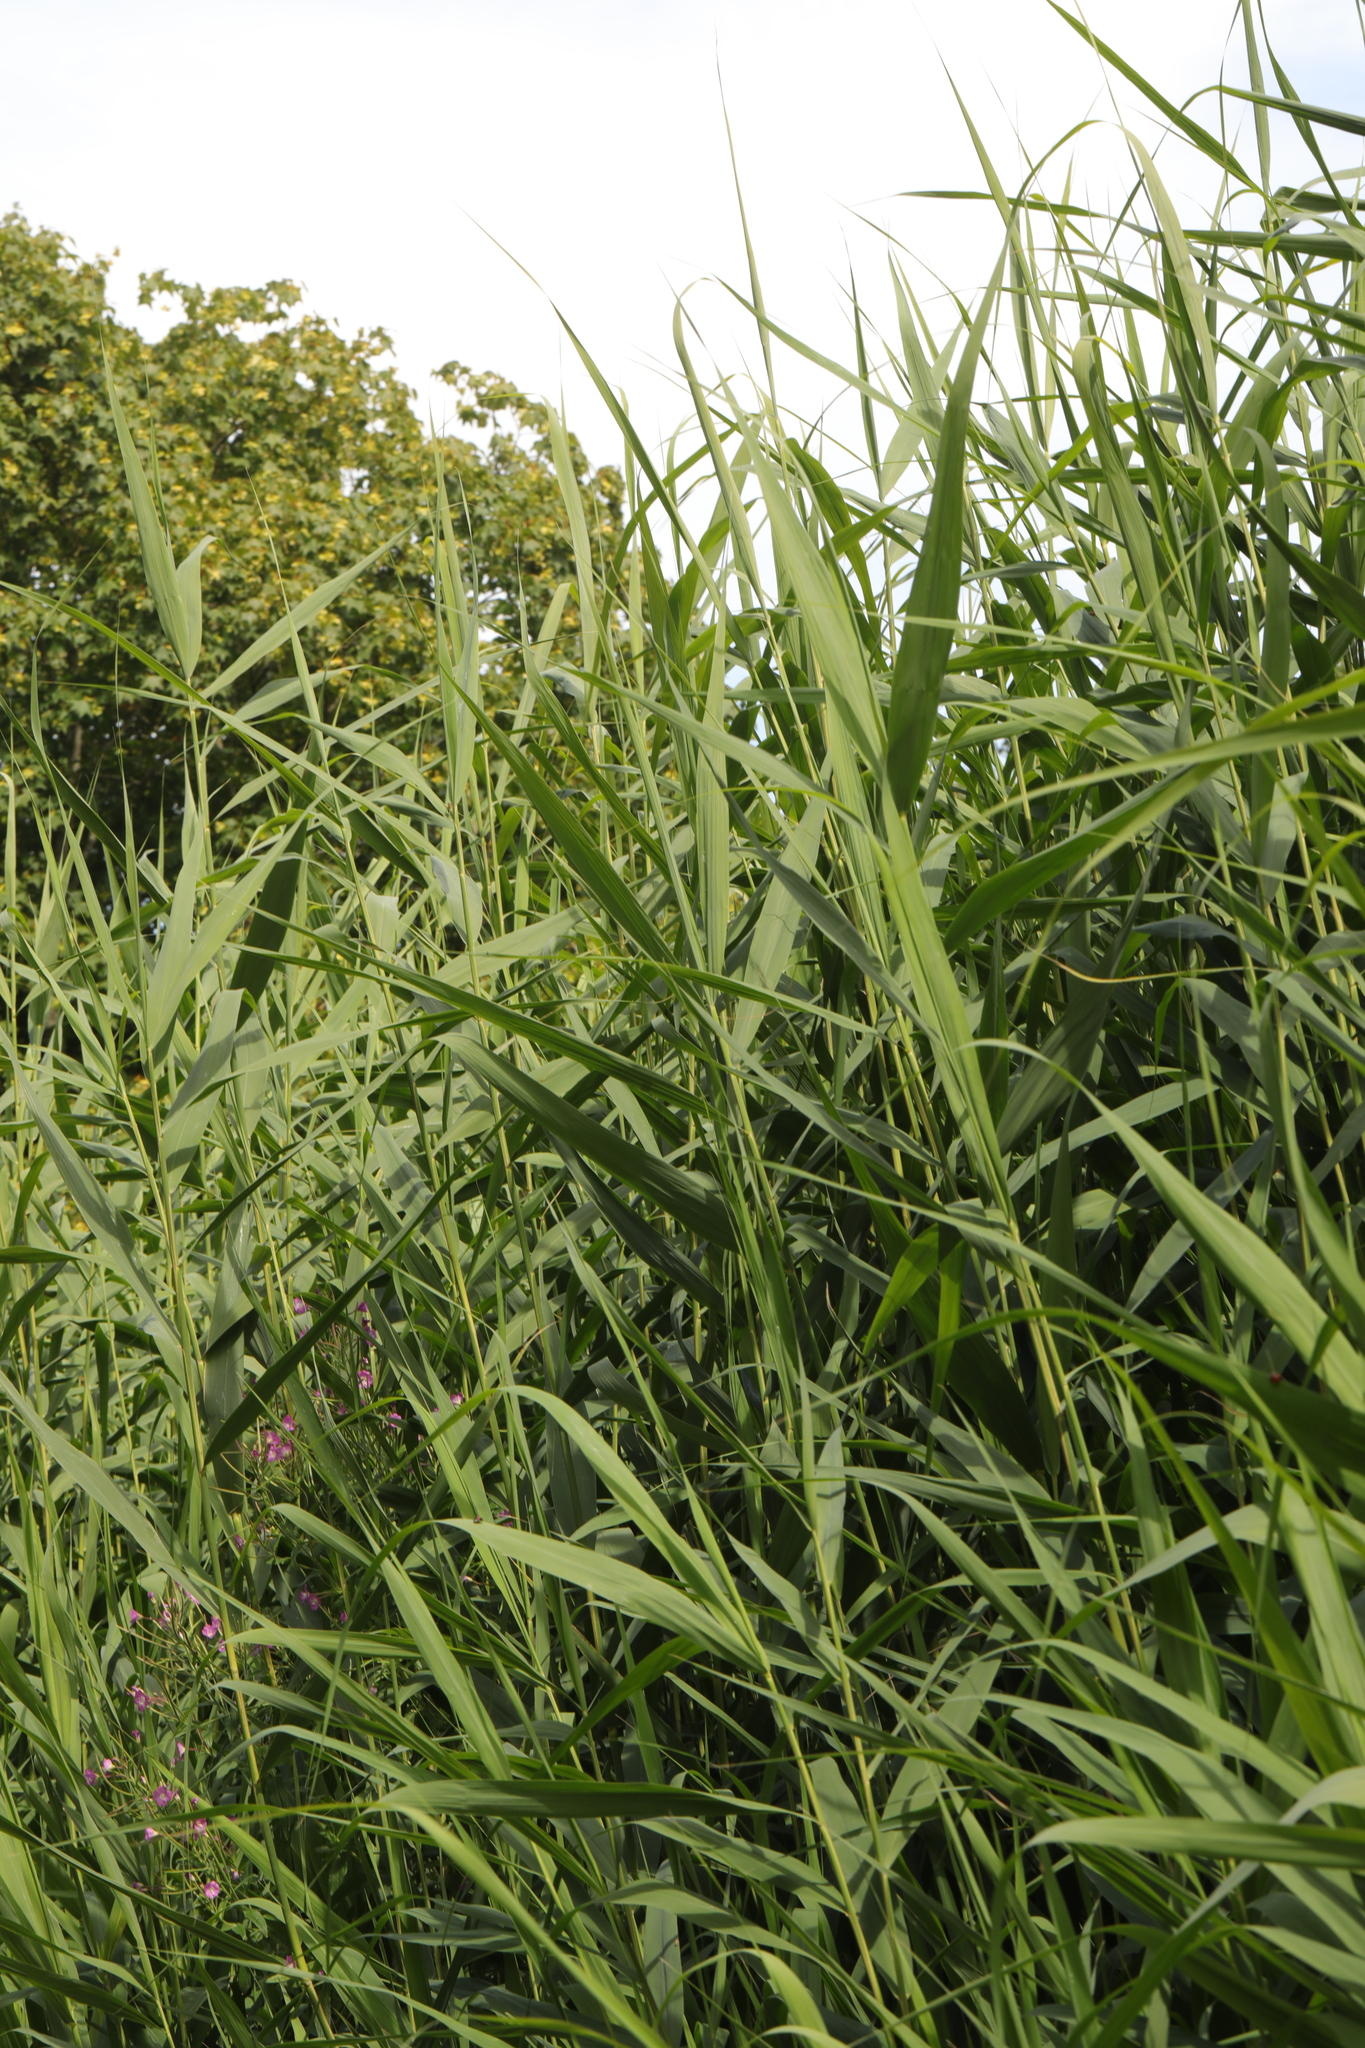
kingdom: Plantae
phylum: Tracheophyta
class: Liliopsida
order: Poales
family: Poaceae
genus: Phragmites
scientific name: Phragmites australis
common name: Common reed
